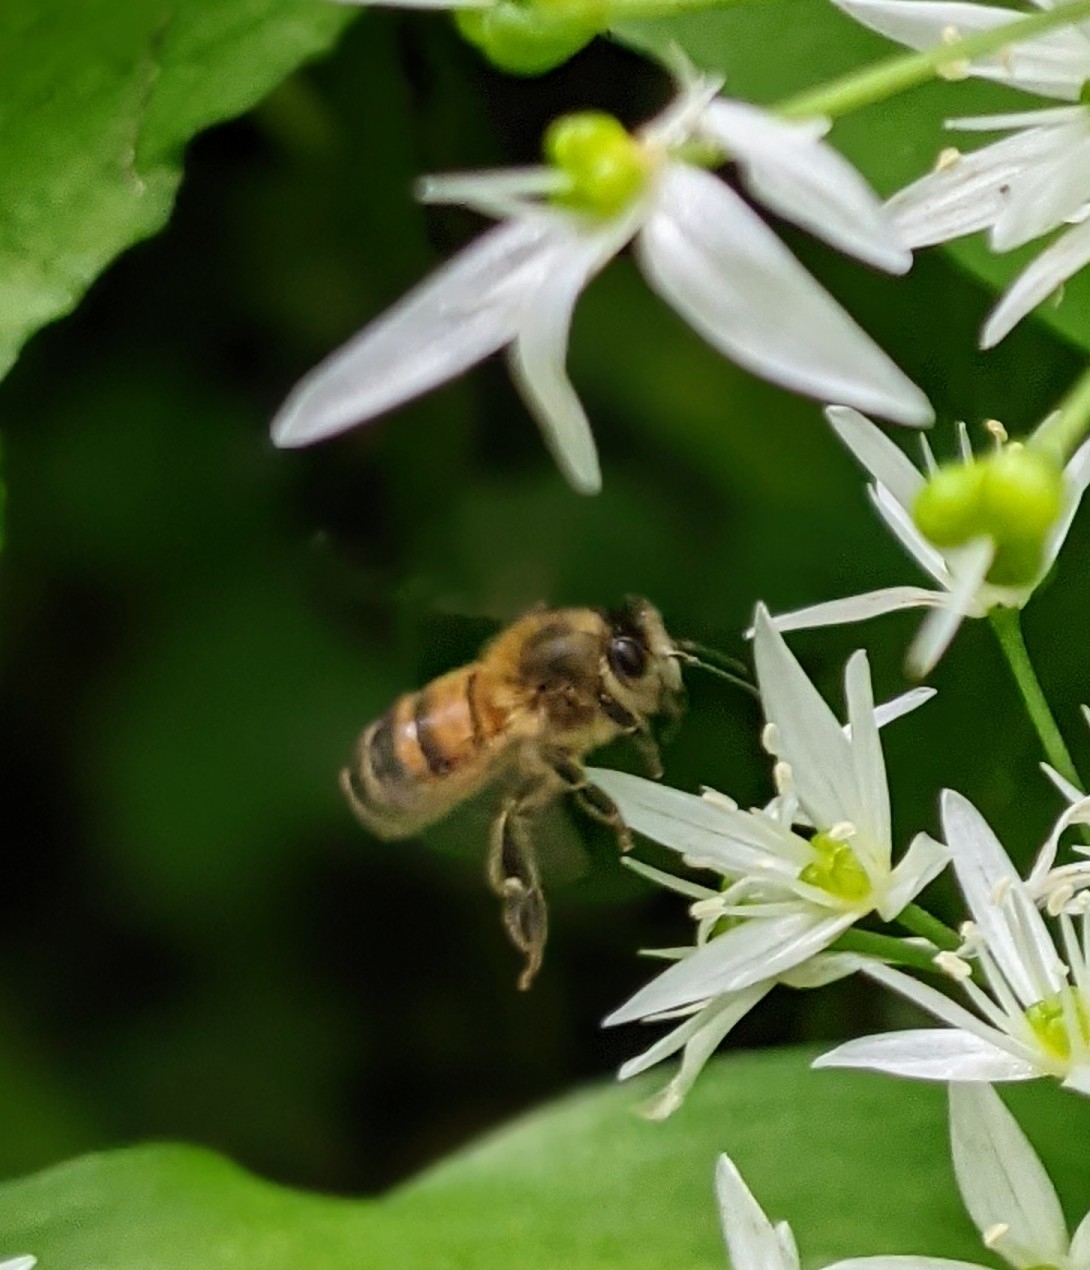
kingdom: Animalia
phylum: Arthropoda
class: Insecta
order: Hymenoptera
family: Apidae
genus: Apis
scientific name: Apis mellifera
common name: Honey bee
